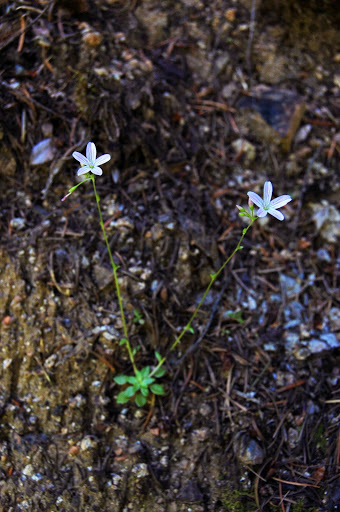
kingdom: Plantae
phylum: Tracheophyta
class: Magnoliopsida
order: Caryophyllales
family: Montiaceae
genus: Montia
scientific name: Montia parvifolia
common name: Small-leaved blinks
